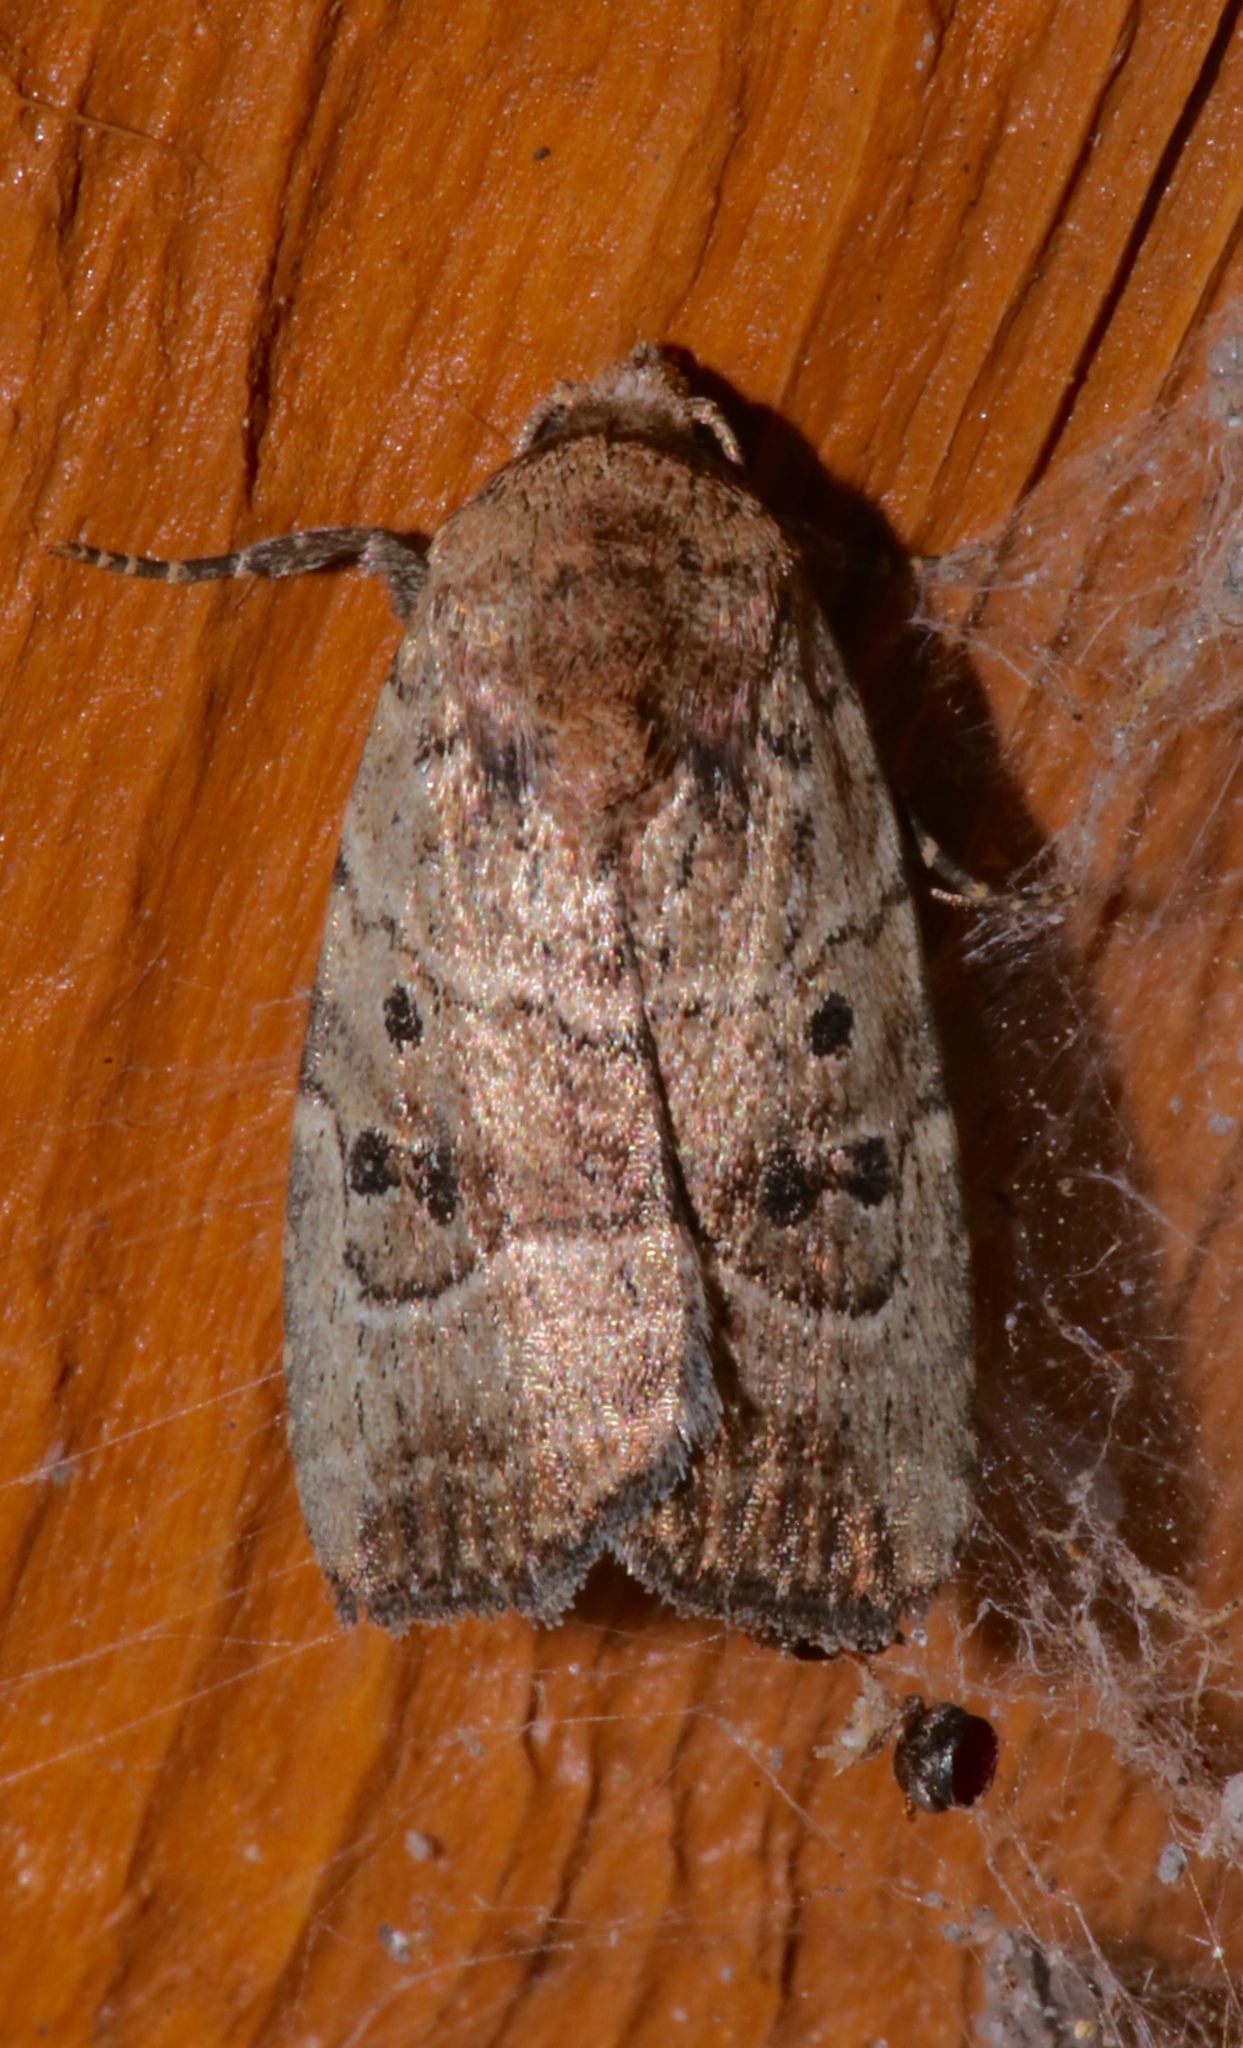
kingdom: Animalia
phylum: Arthropoda
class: Insecta
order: Lepidoptera
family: Noctuidae
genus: Elaphria
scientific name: Elaphria fuscimacula
